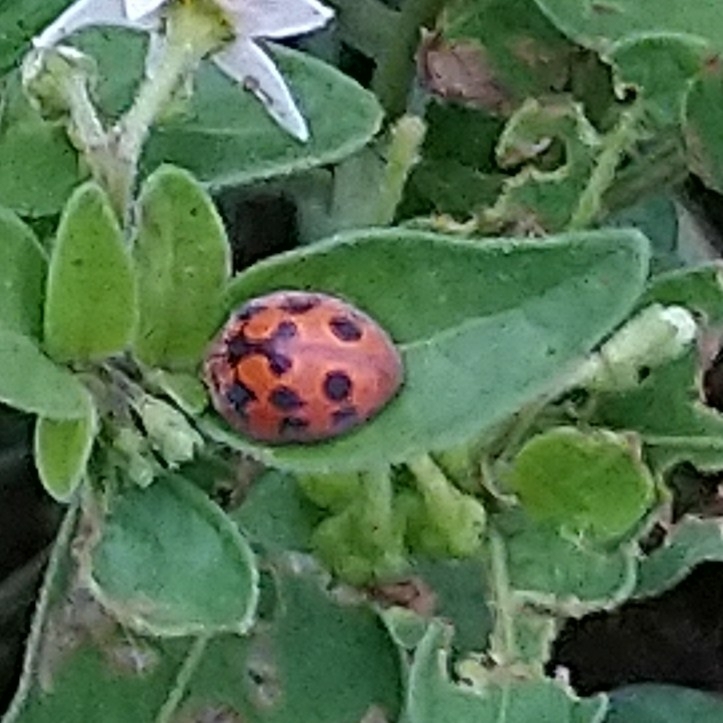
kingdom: Animalia
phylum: Arthropoda
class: Insecta
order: Coleoptera
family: Coccinellidae
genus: Chnootriba
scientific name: Chnootriba
